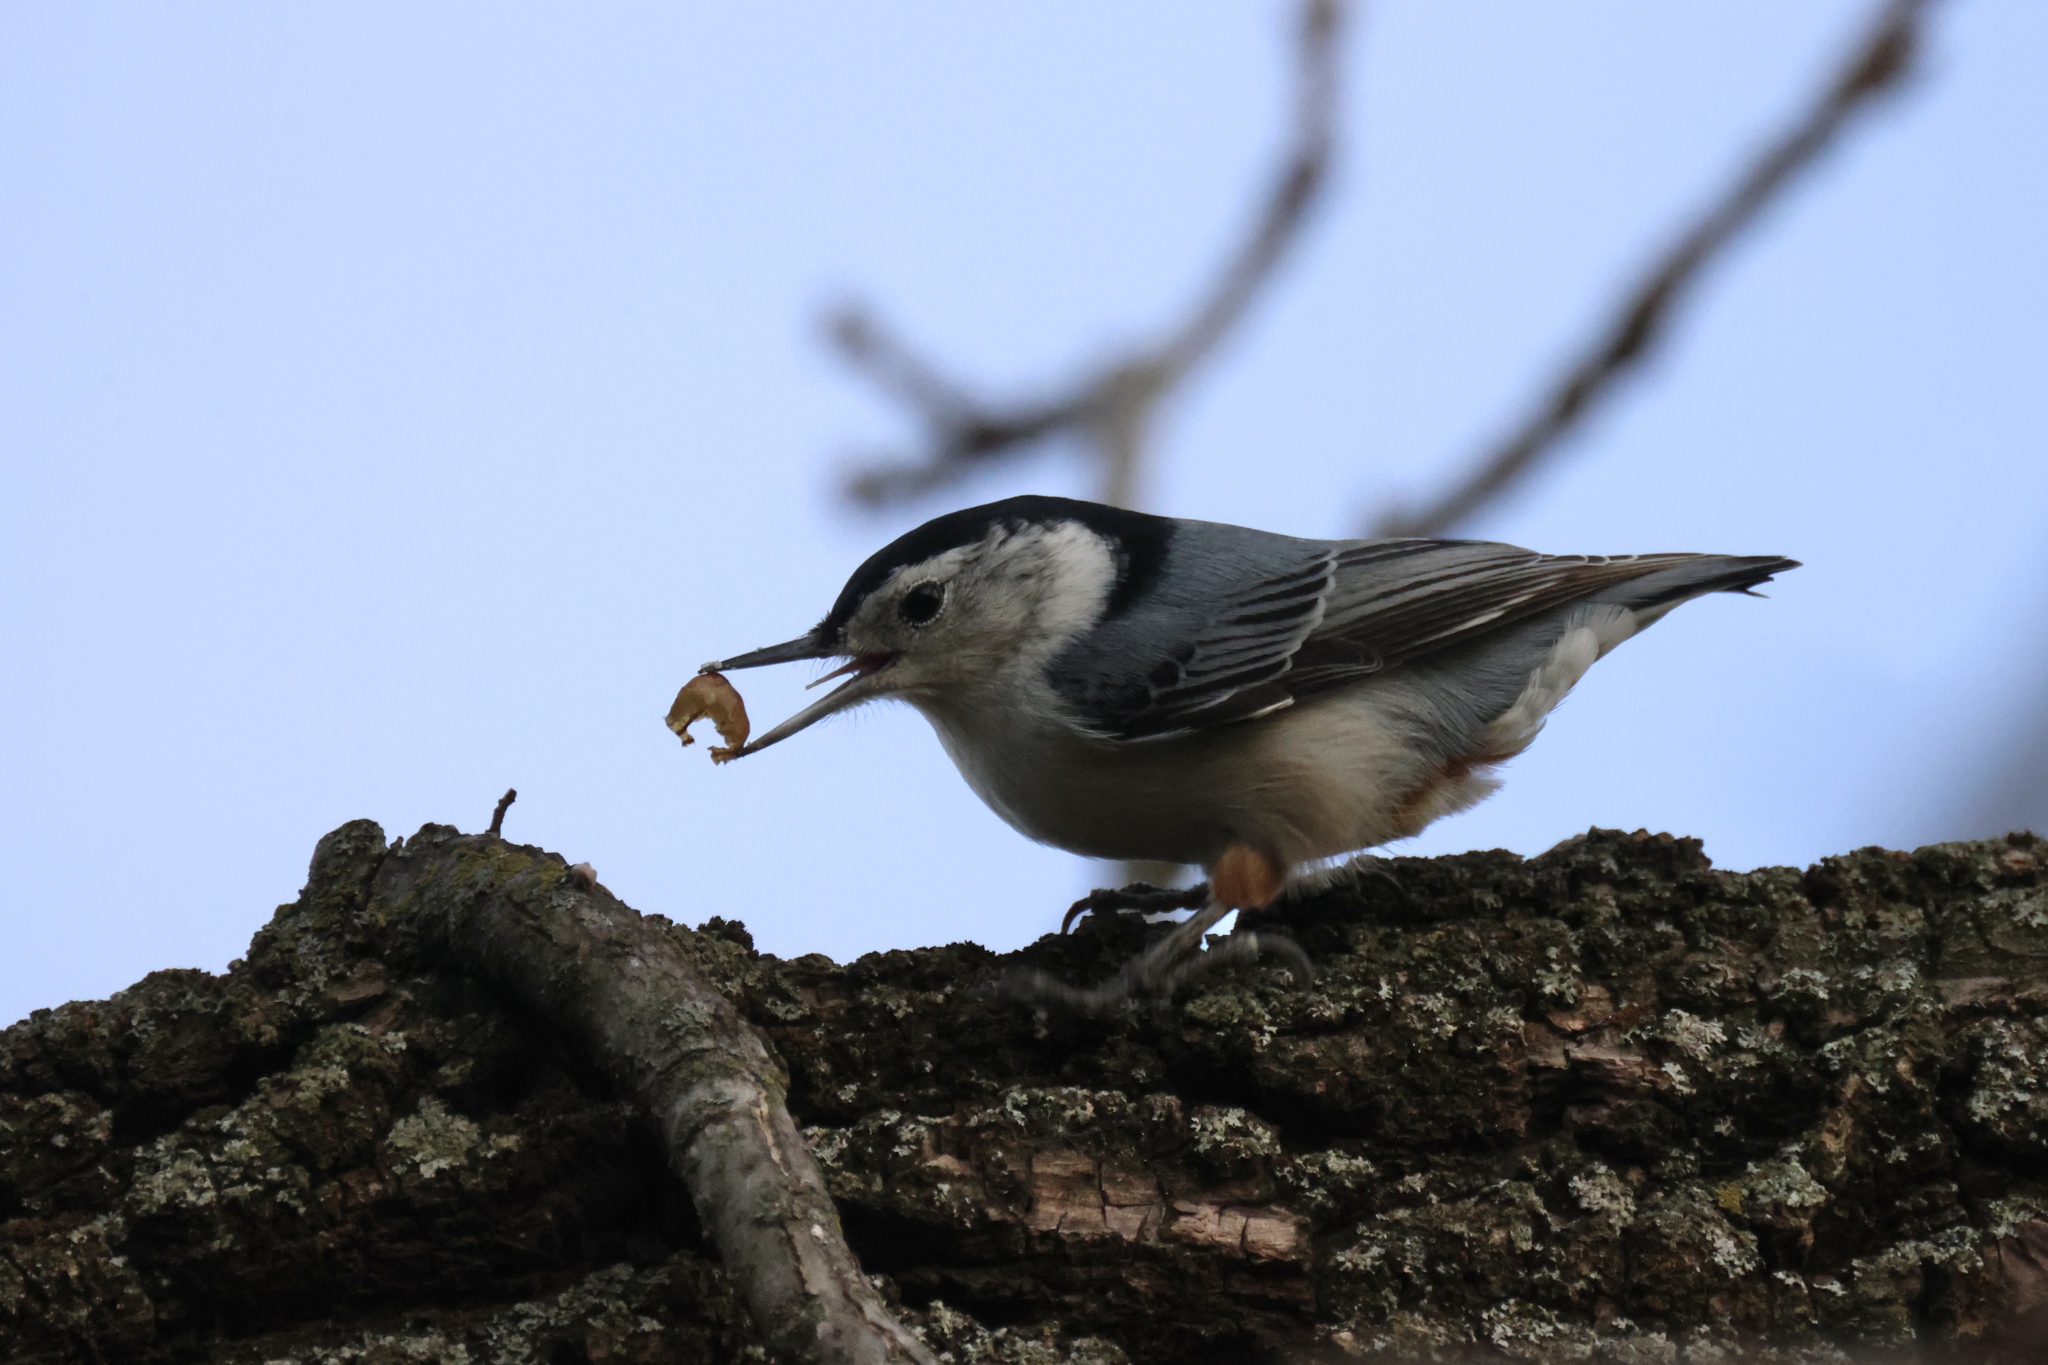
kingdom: Animalia
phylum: Chordata
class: Aves
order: Passeriformes
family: Sittidae
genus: Sitta
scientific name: Sitta carolinensis
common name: White-breasted nuthatch
